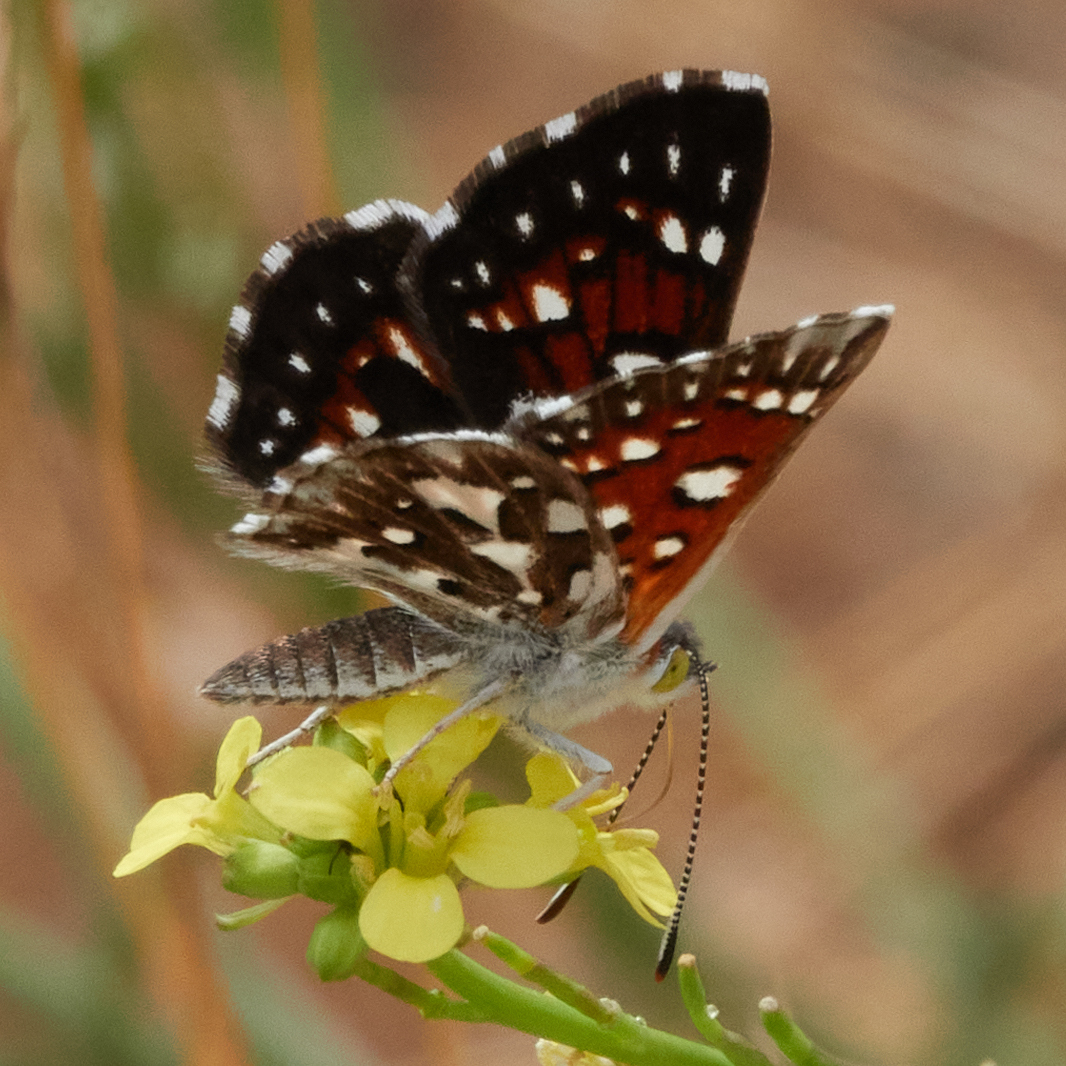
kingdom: Animalia
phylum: Arthropoda
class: Insecta
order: Lepidoptera
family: Riodinidae
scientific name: Riodinidae
